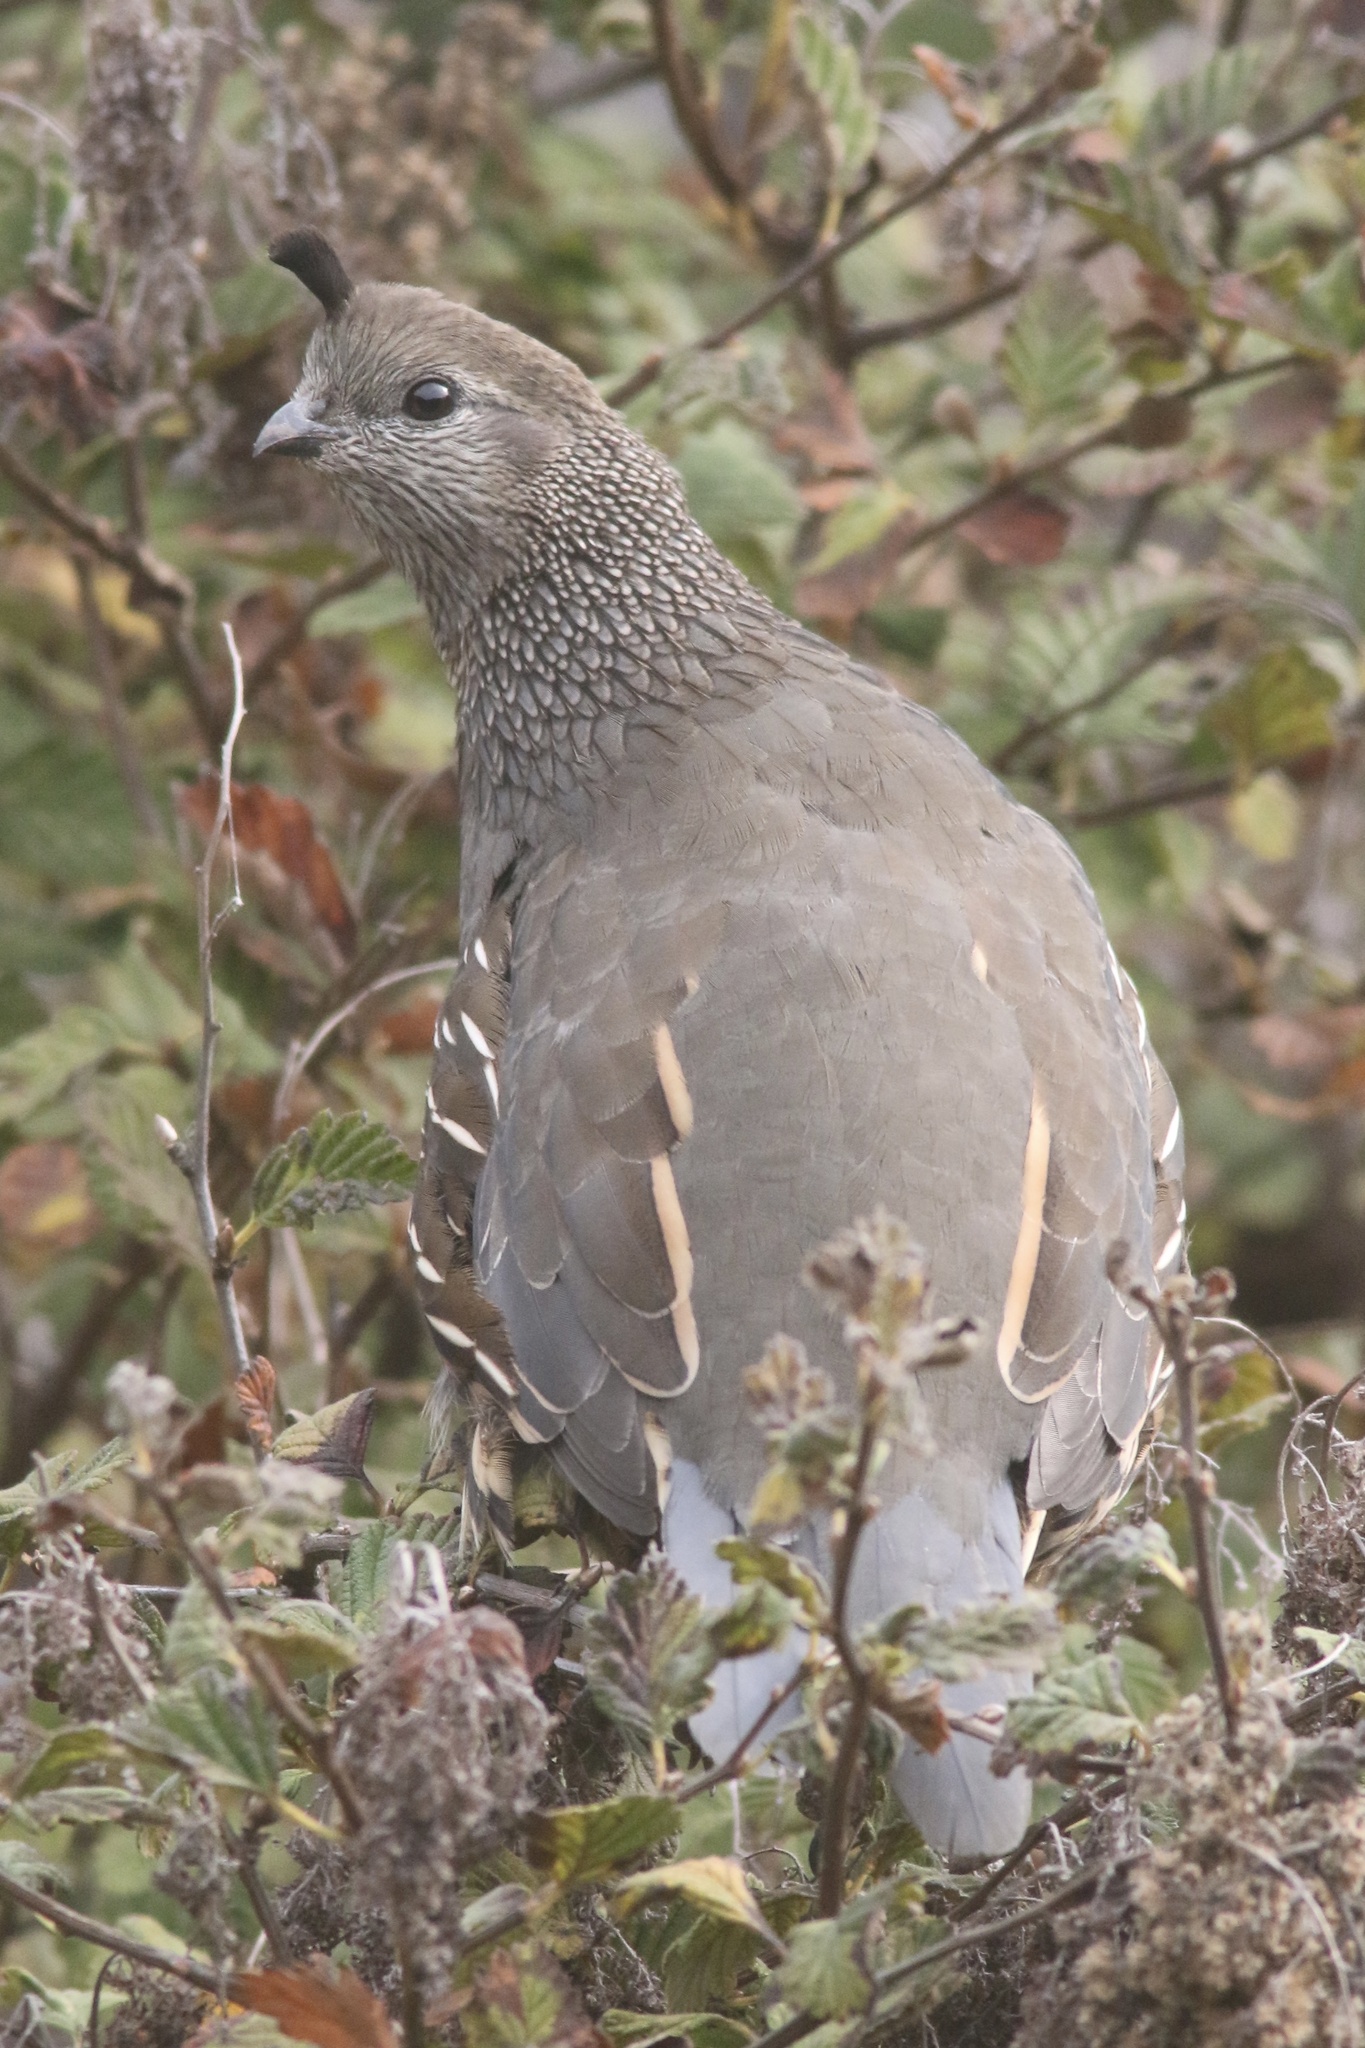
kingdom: Animalia
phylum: Chordata
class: Aves
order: Galliformes
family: Odontophoridae
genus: Callipepla
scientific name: Callipepla californica
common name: California quail
